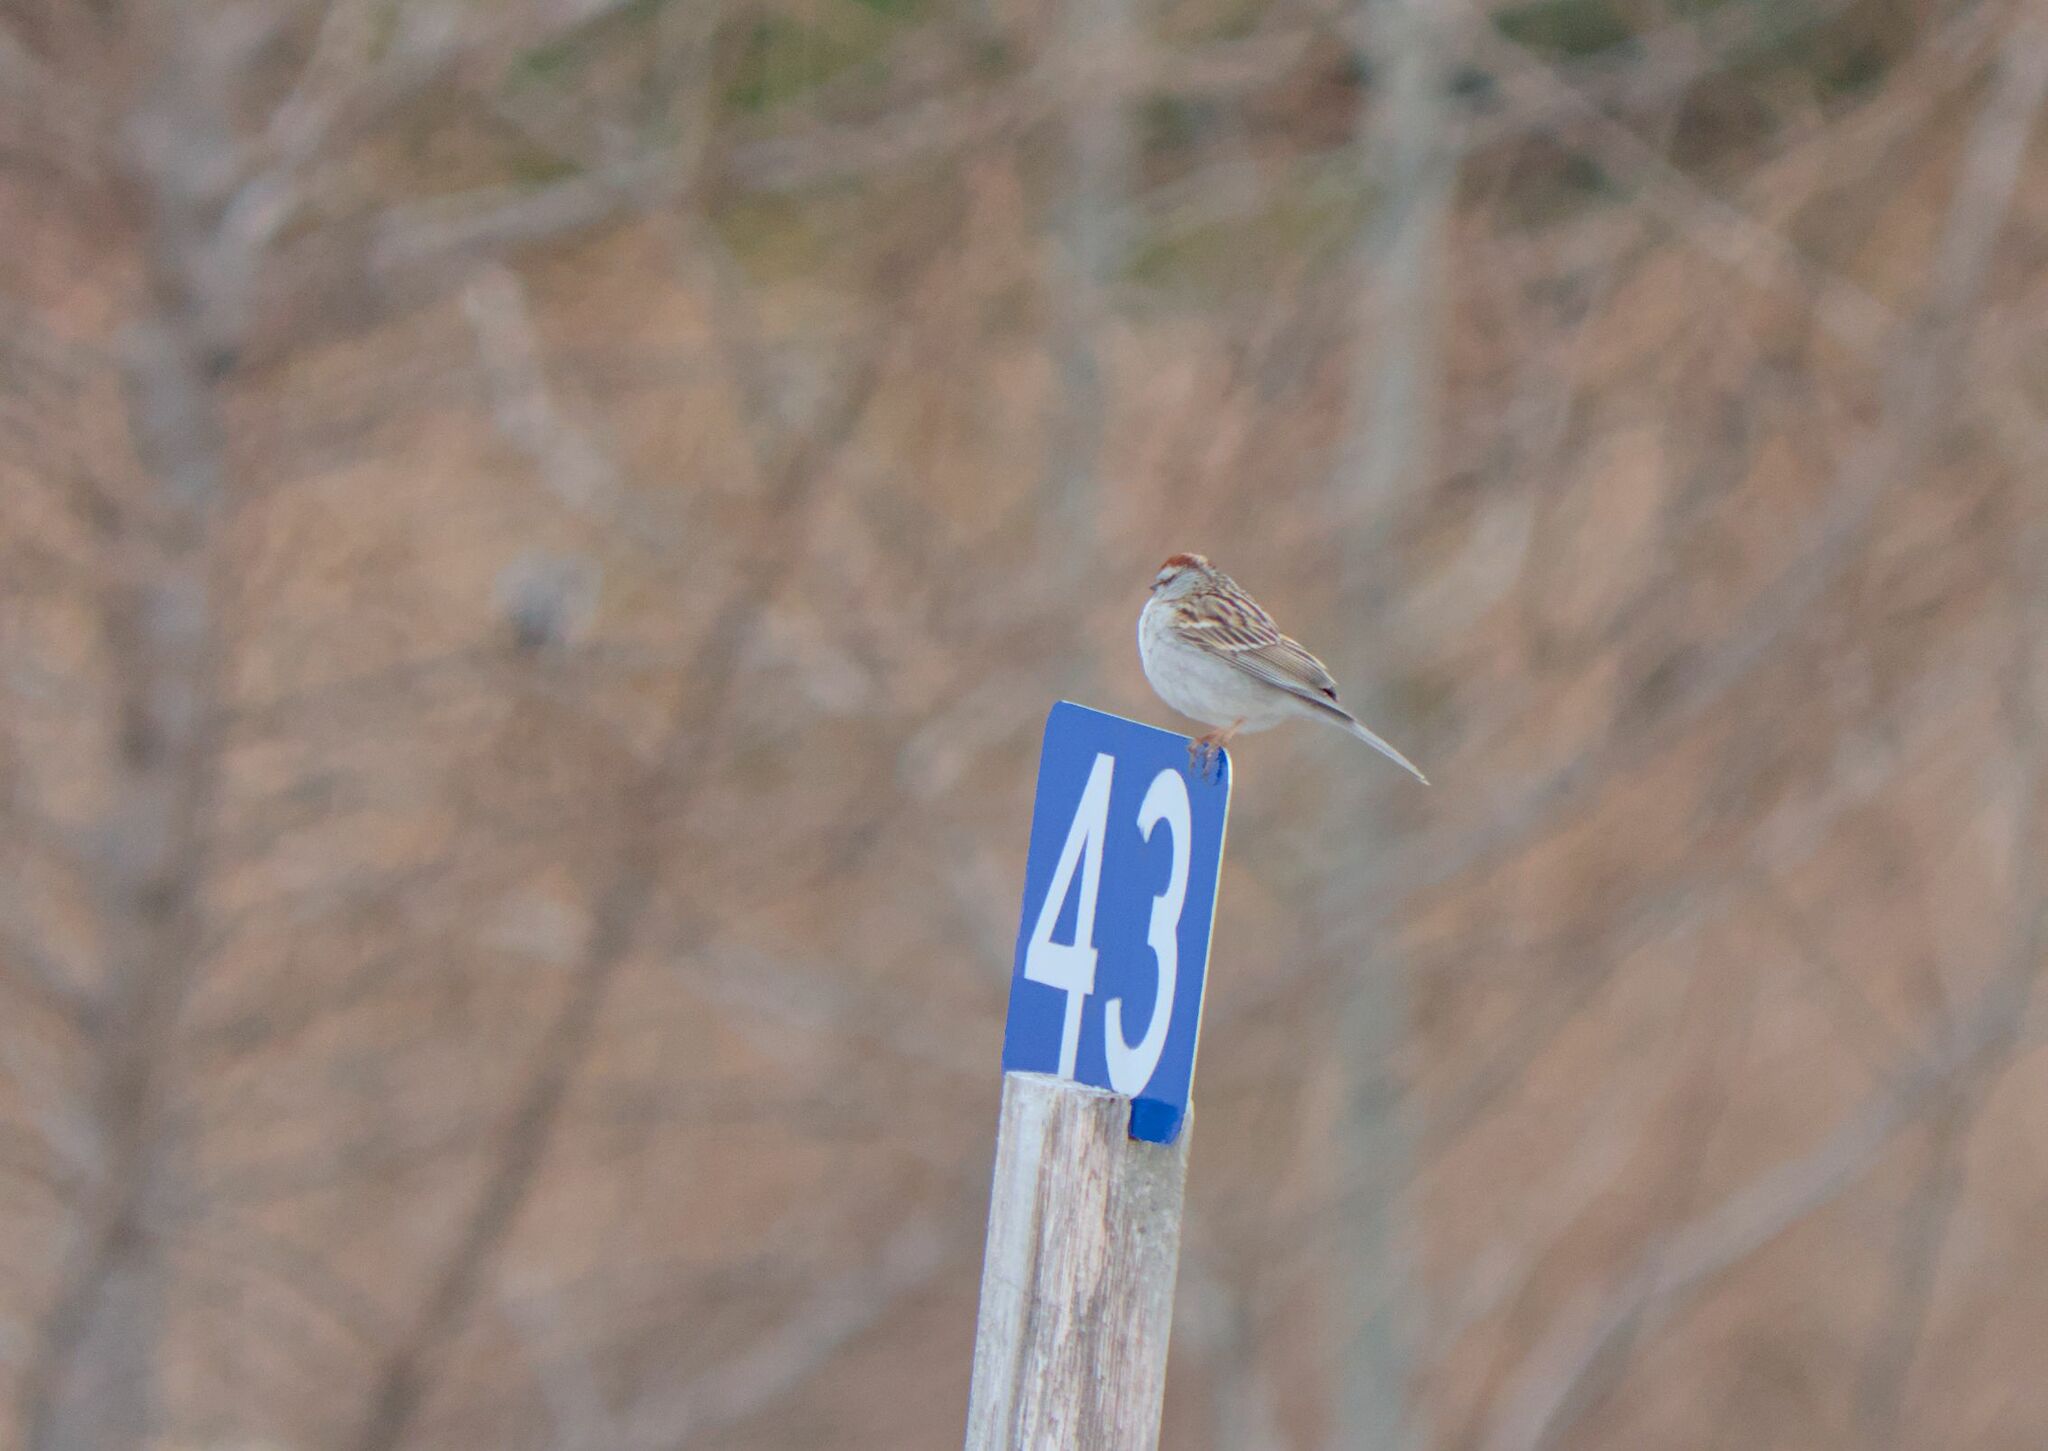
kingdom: Animalia
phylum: Chordata
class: Aves
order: Passeriformes
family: Passerellidae
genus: Spizella
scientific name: Spizella passerina
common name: Chipping sparrow
